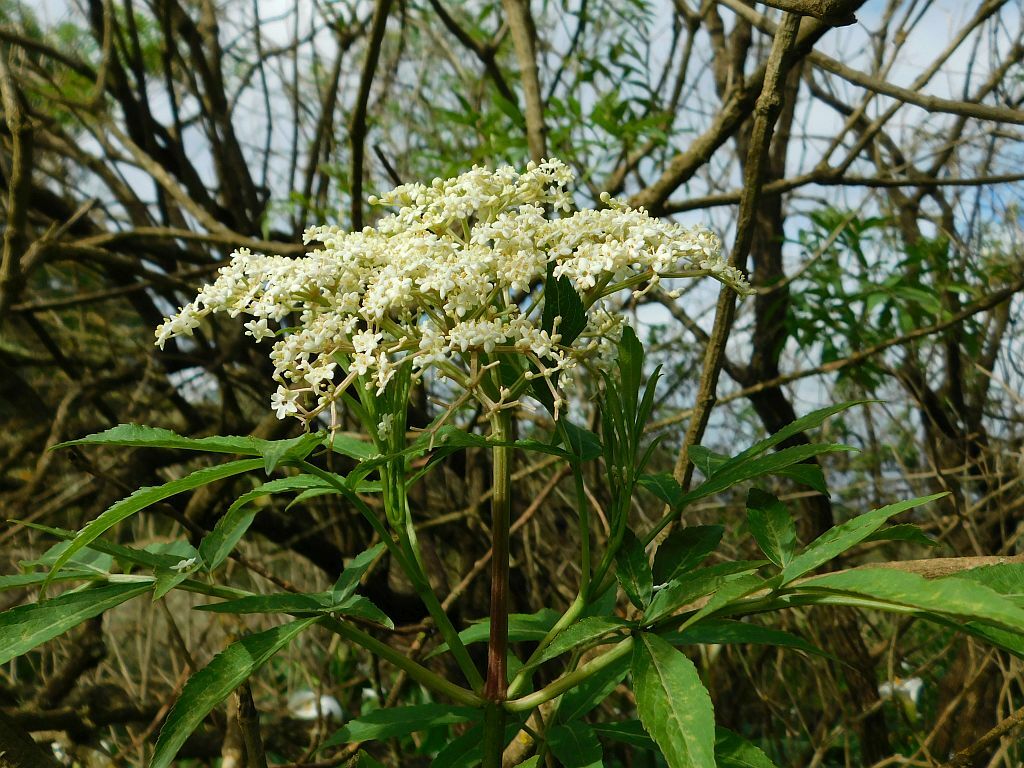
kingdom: Plantae
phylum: Tracheophyta
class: Magnoliopsida
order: Dipsacales
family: Viburnaceae
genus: Sambucus
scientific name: Sambucus nigra
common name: Elder
